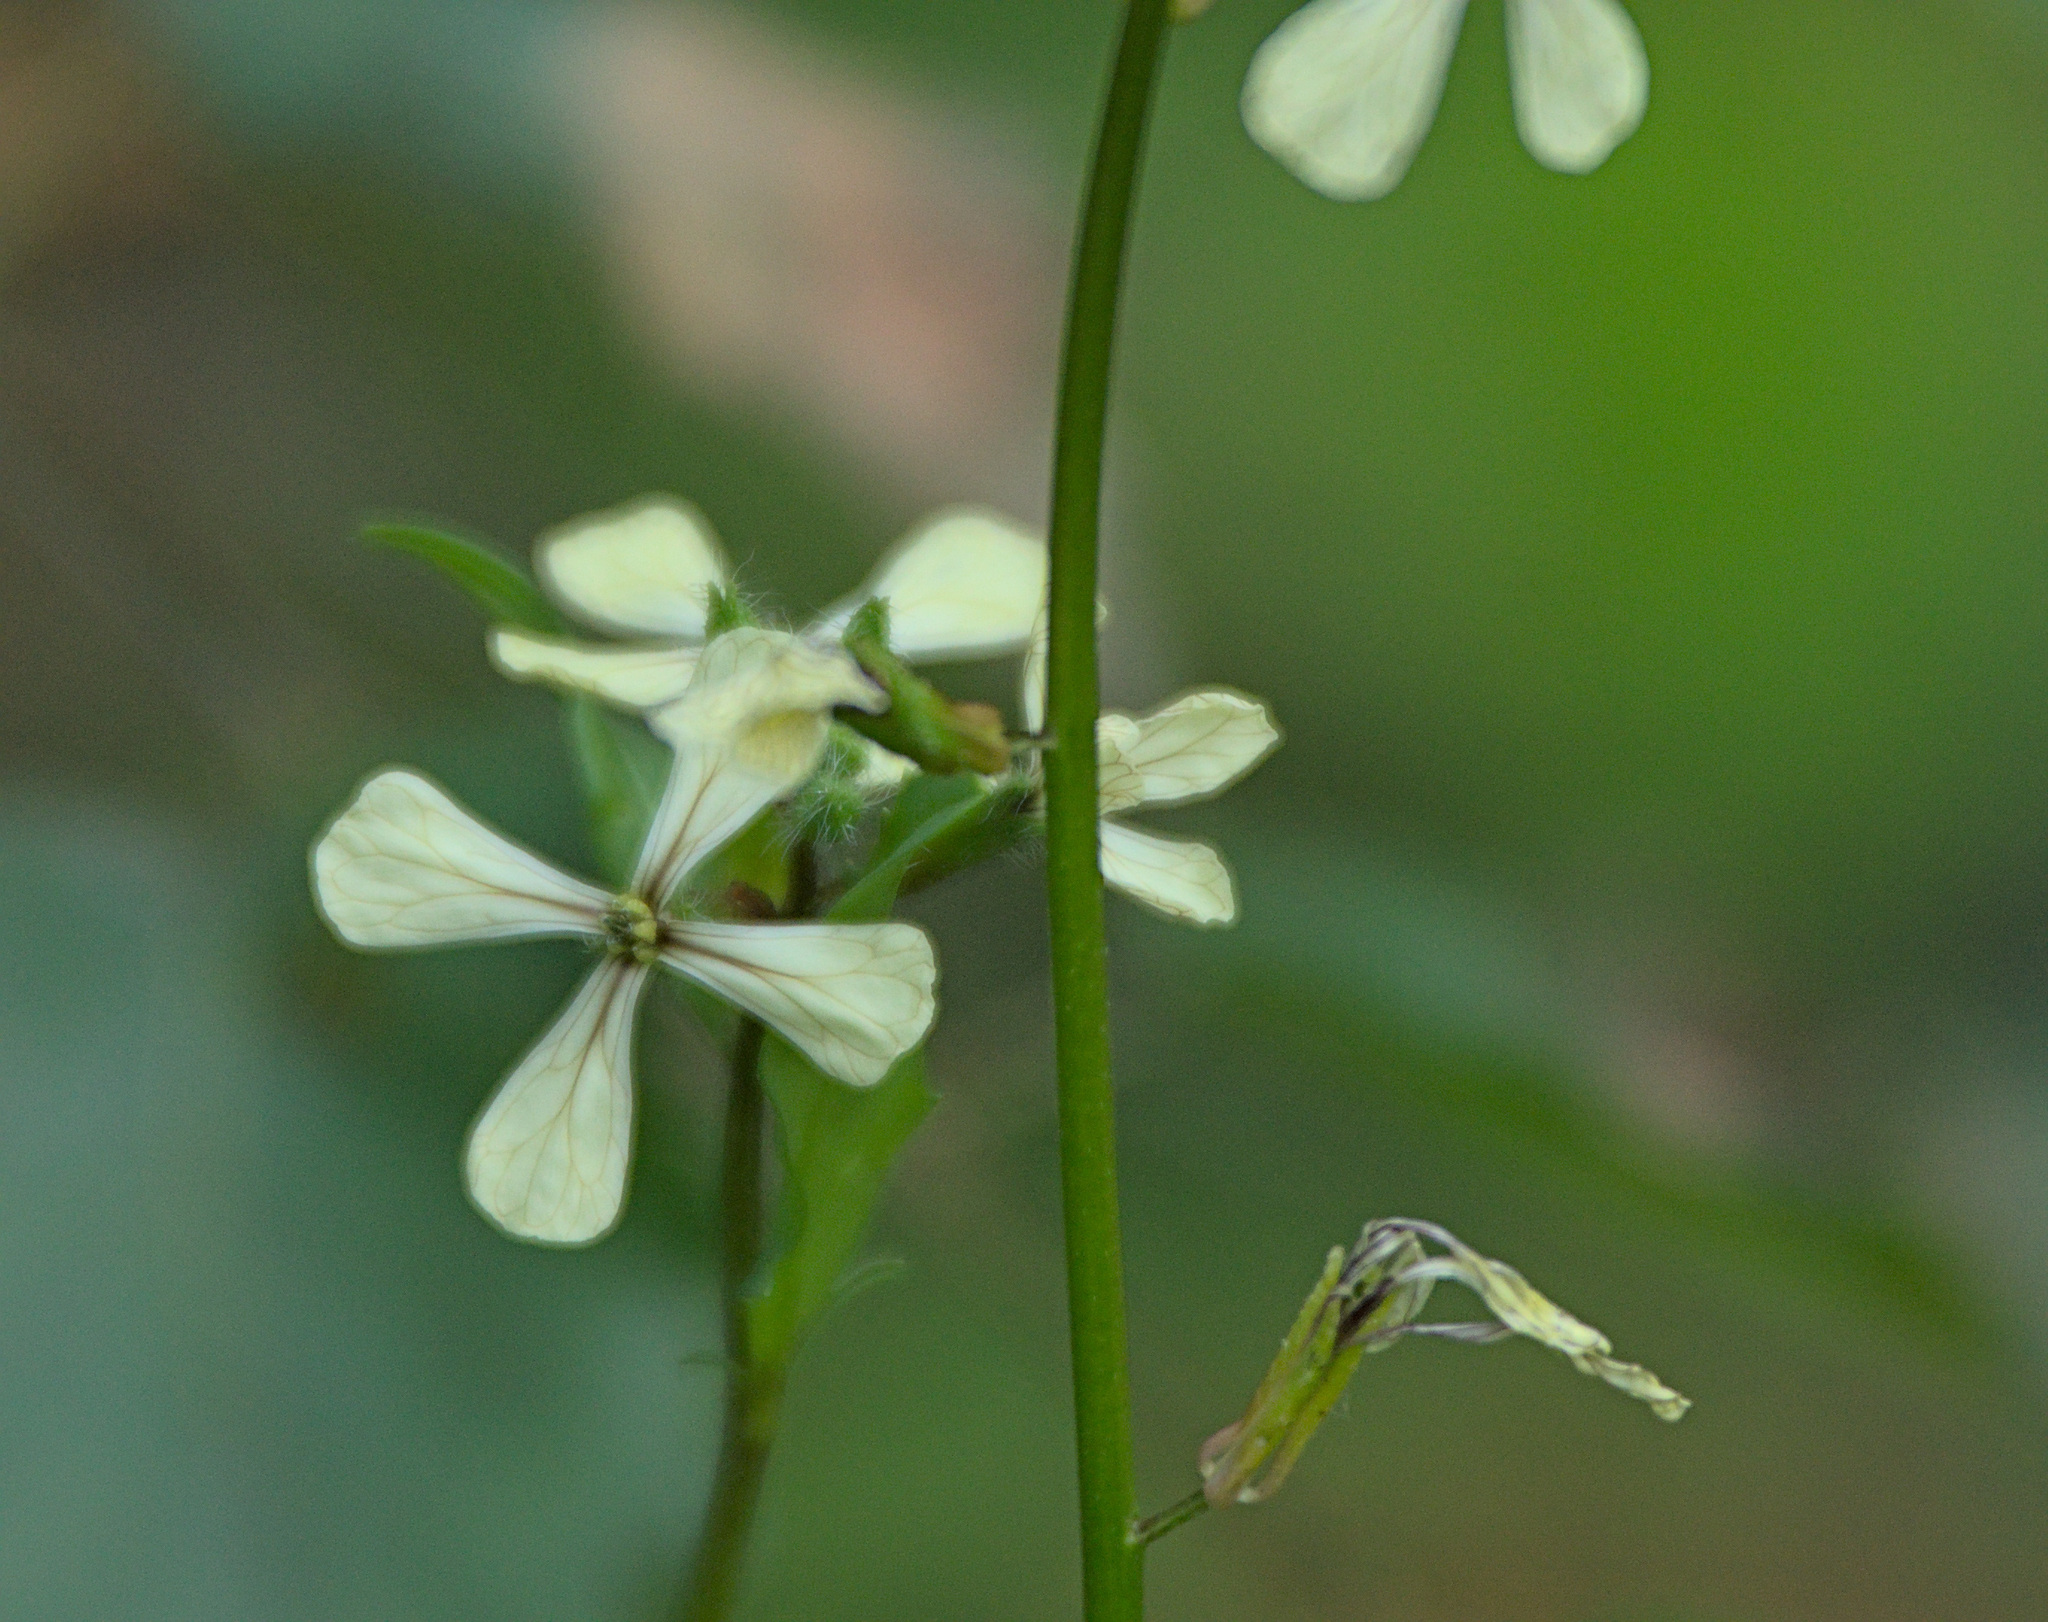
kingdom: Plantae
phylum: Tracheophyta
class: Magnoliopsida
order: Brassicales
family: Brassicaceae
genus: Eruca
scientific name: Eruca vesicaria
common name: Garden rocket
